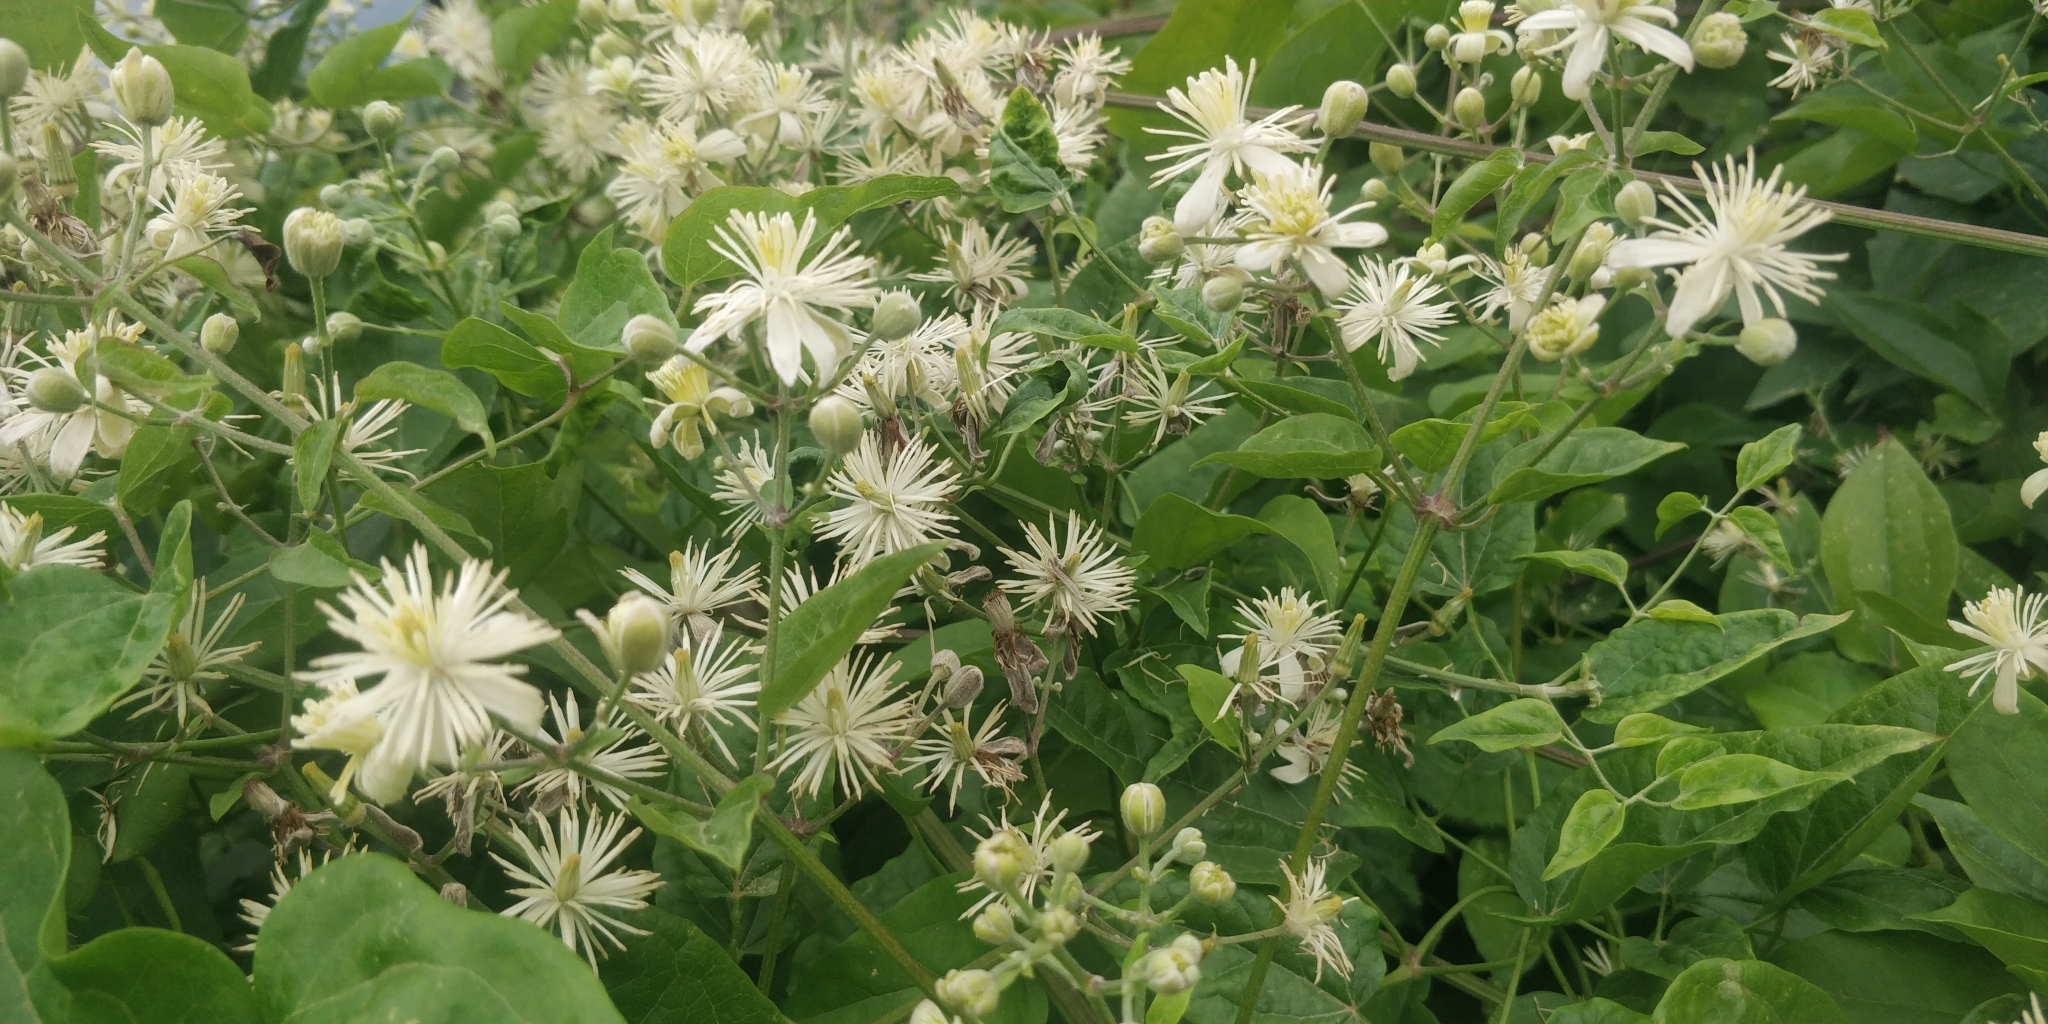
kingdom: Plantae
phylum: Tracheophyta
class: Magnoliopsida
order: Ranunculales
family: Ranunculaceae
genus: Clematis
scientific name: Clematis vitalba
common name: Evergreen clematis
